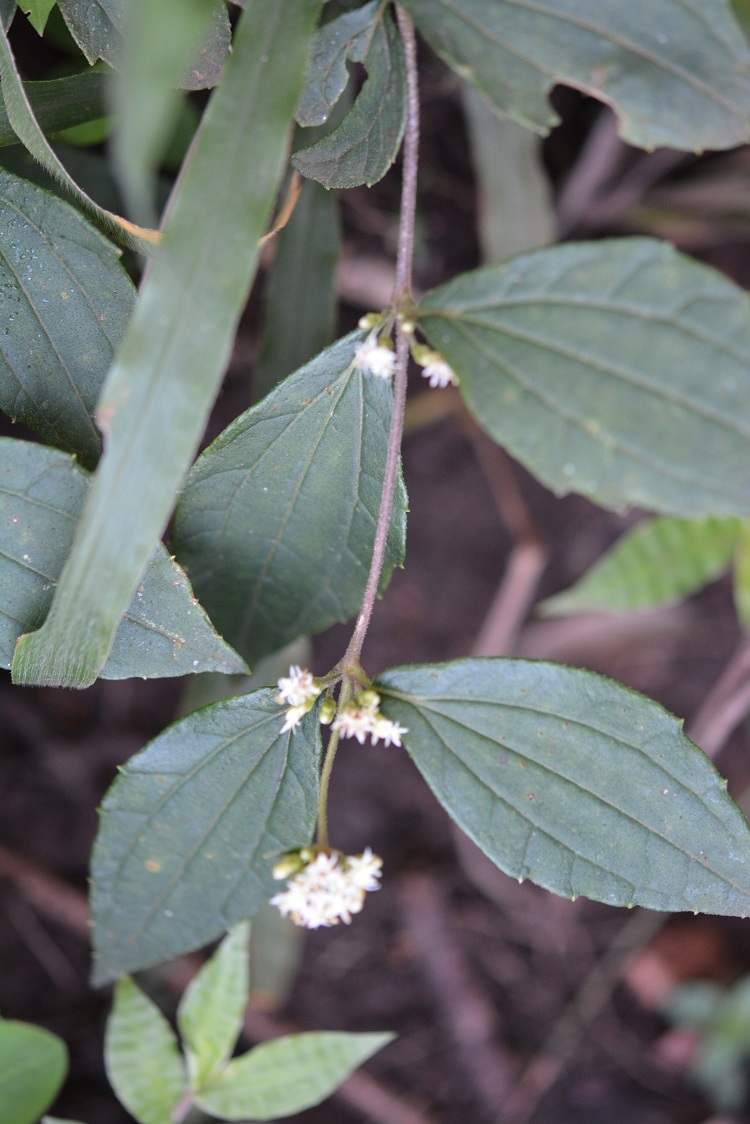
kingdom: Plantae
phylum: Tracheophyta
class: Magnoliopsida
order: Asterales
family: Asteraceae
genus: Calea
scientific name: Calea ternifolia
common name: Mexican calea
